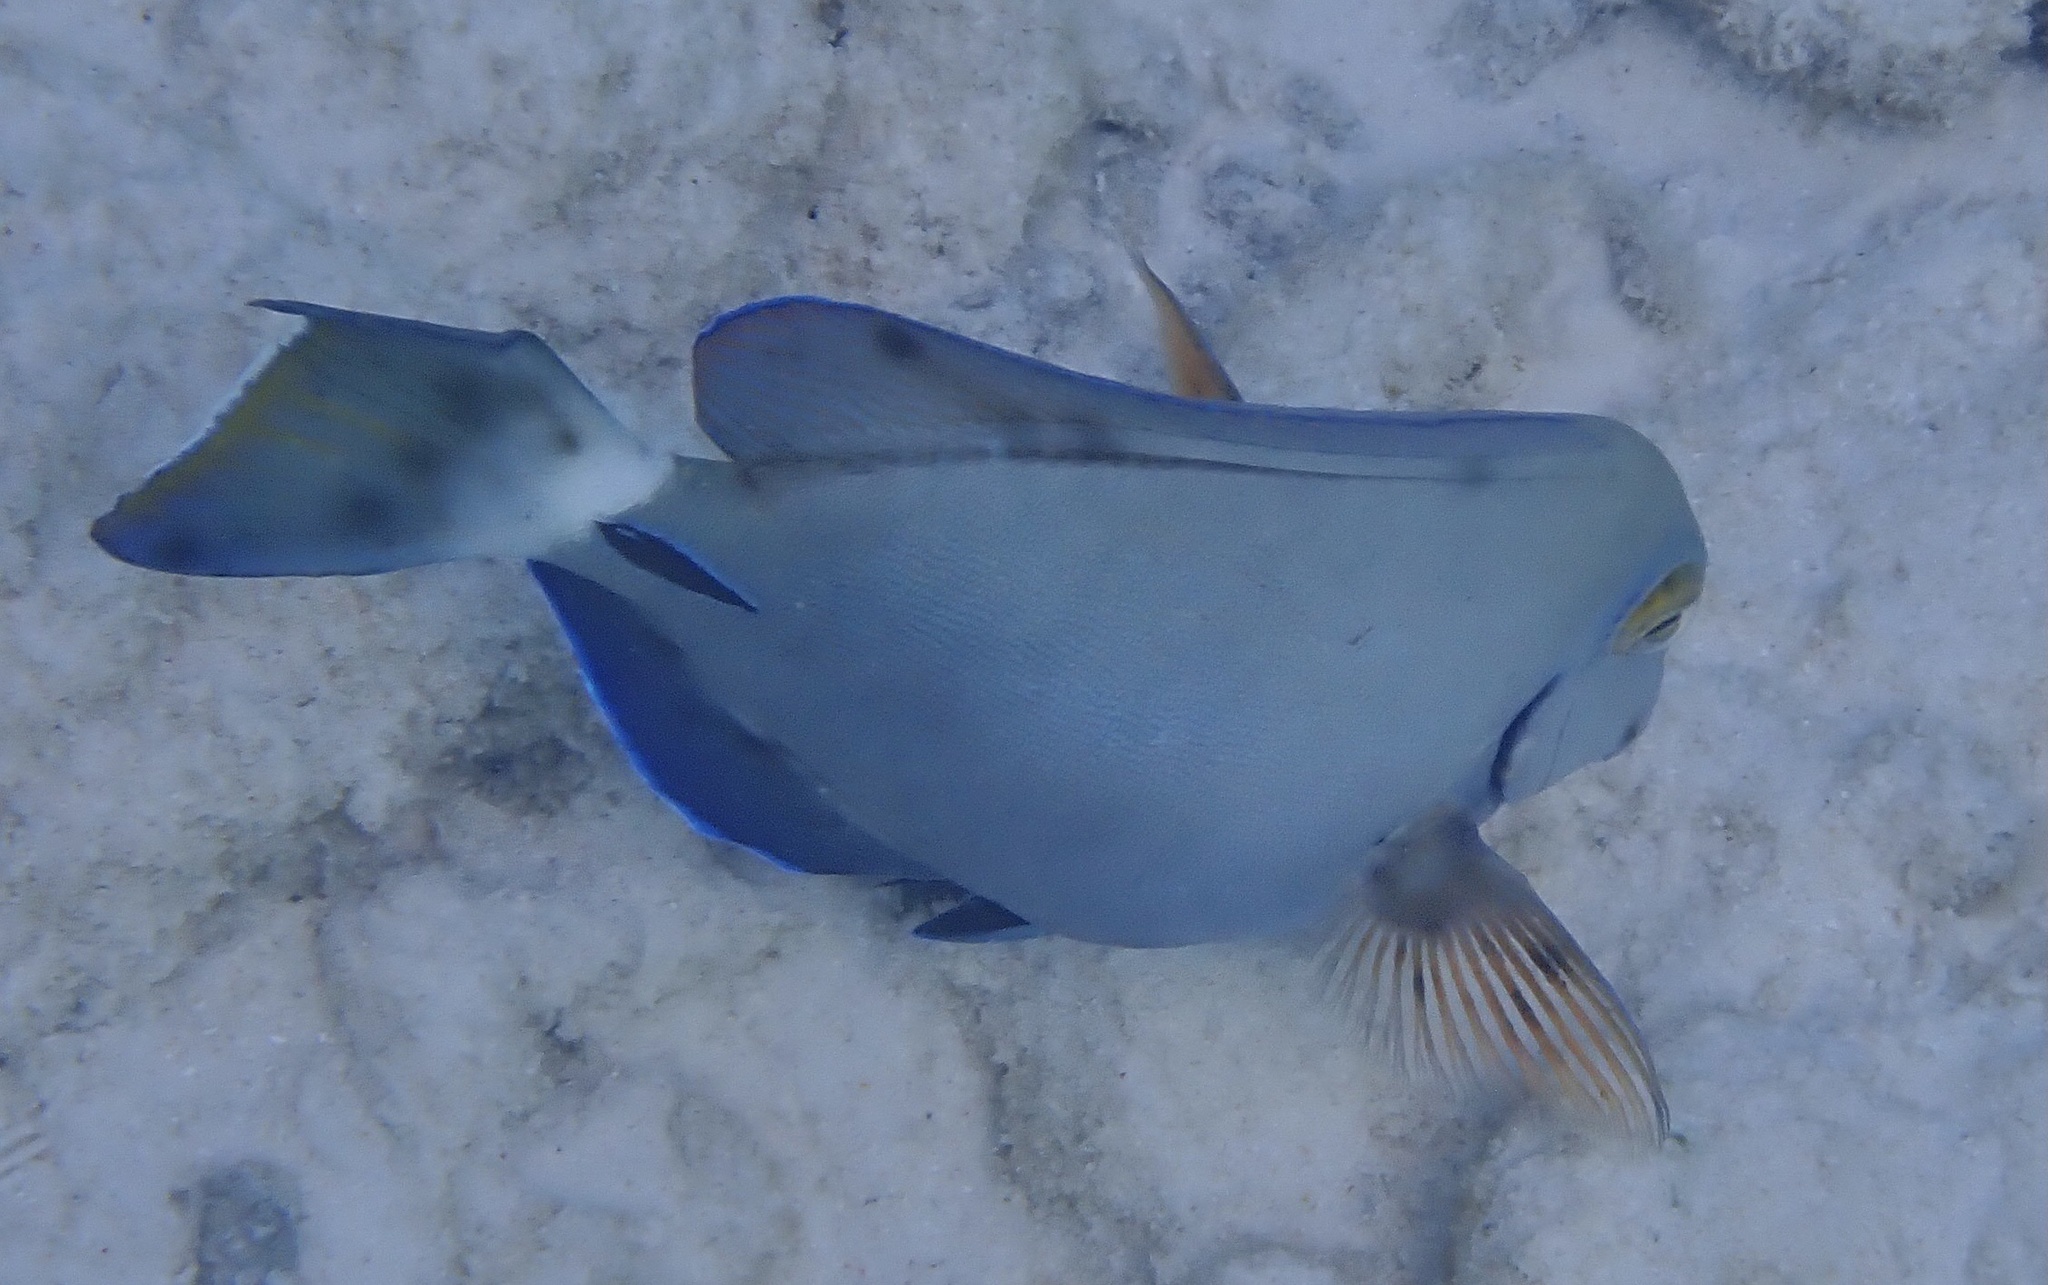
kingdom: Animalia
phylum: Chordata
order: Perciformes
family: Acanthuridae
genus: Acanthurus
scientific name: Acanthurus bahianus
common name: Ocean surgeon
